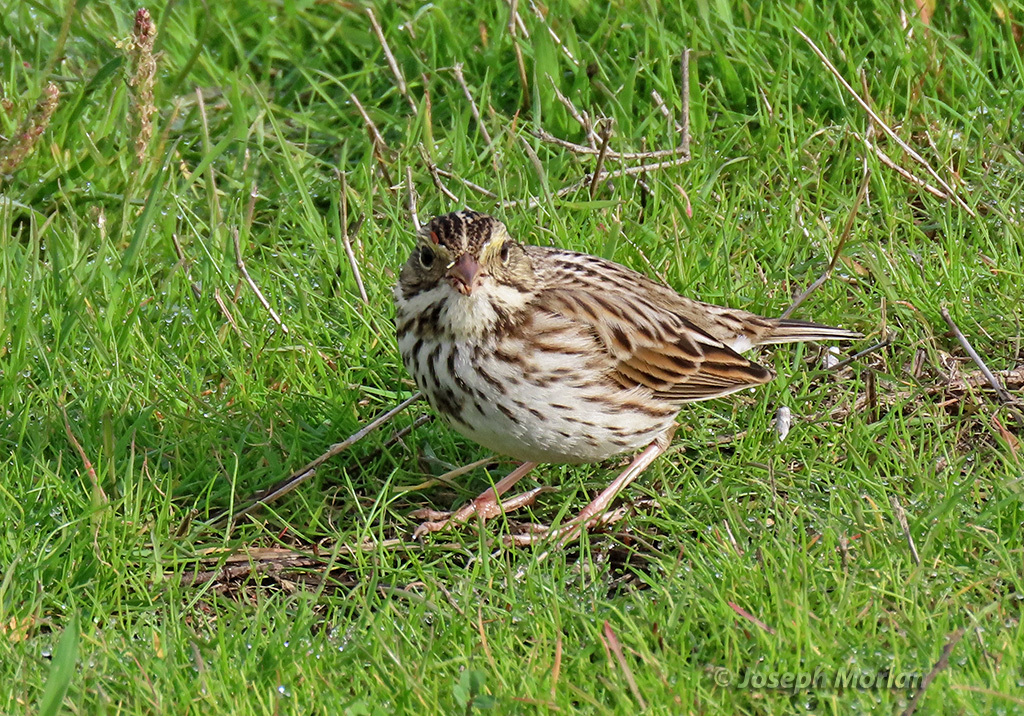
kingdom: Animalia
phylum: Chordata
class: Aves
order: Passeriformes
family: Passerellidae
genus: Passerculus
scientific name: Passerculus sandwichensis
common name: Savannah sparrow
